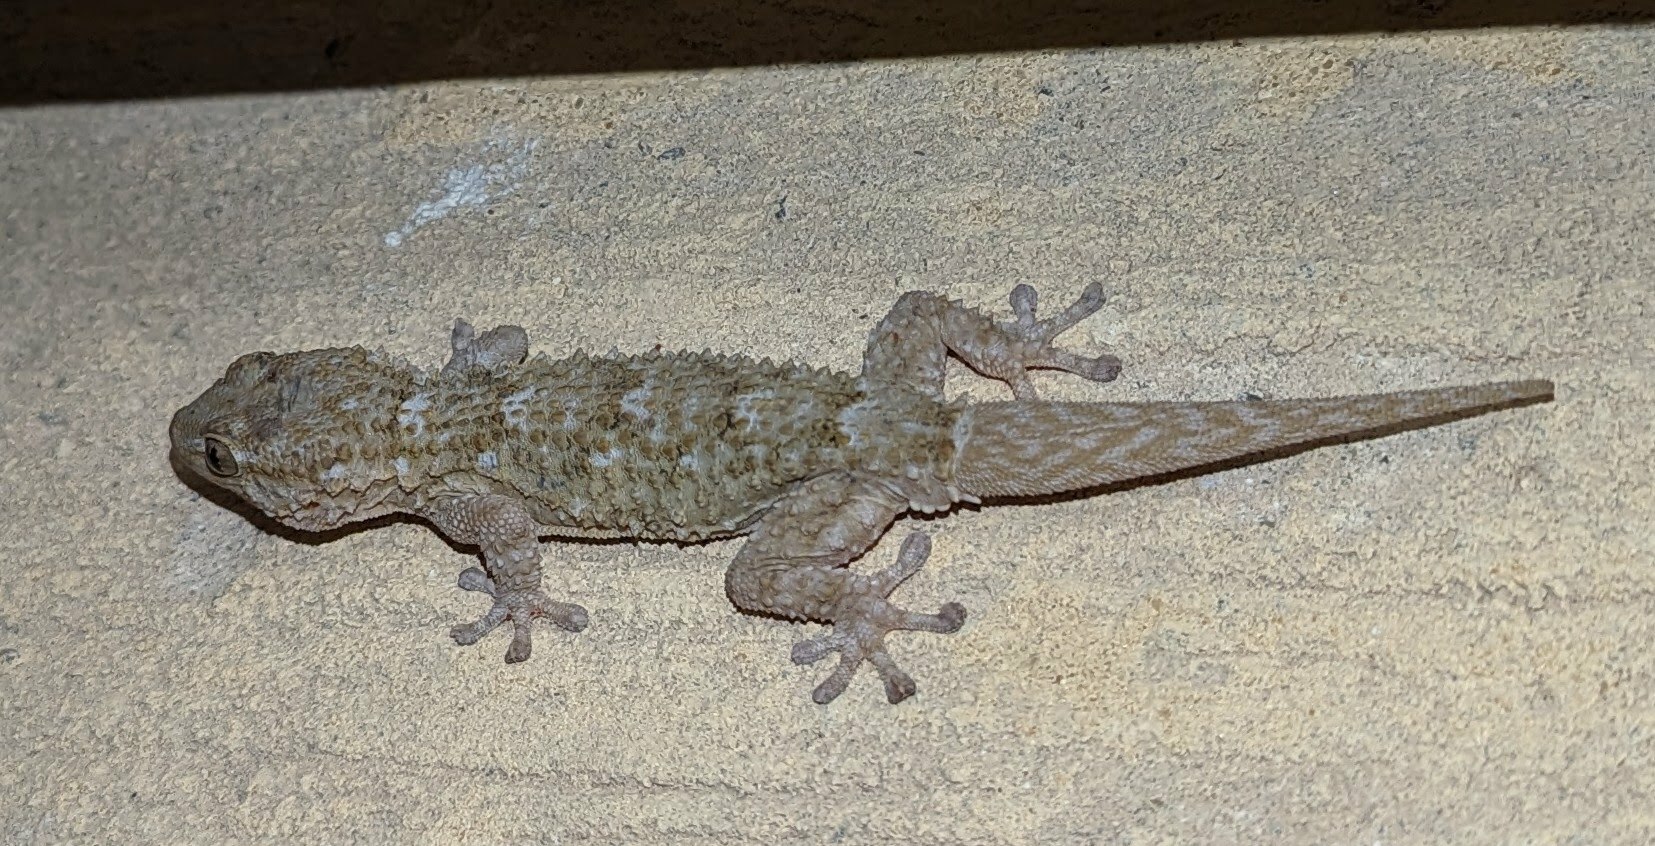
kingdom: Animalia
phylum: Chordata
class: Squamata
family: Phyllodactylidae
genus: Tarentola
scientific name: Tarentola mauritanica
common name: Moorish gecko
